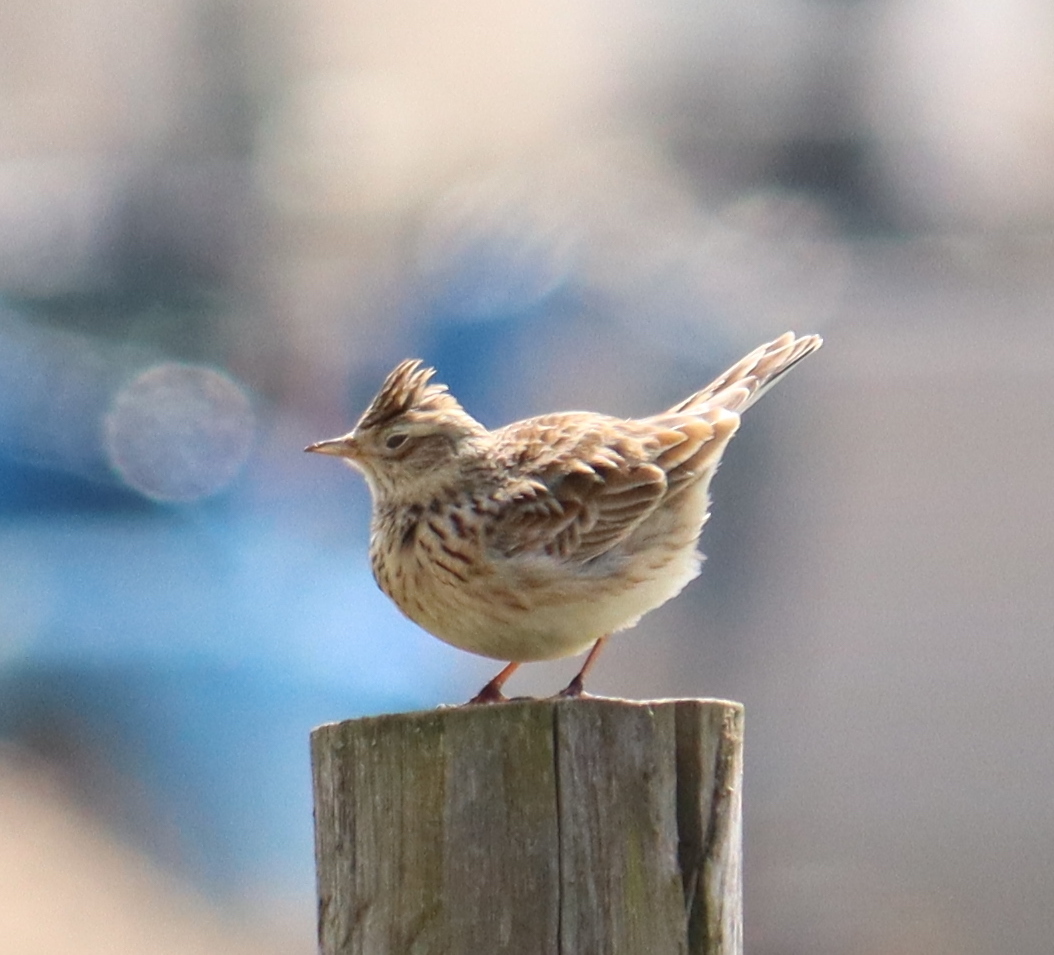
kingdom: Animalia
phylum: Chordata
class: Aves
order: Passeriformes
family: Alaudidae
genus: Alauda
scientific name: Alauda arvensis
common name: Eurasian skylark
